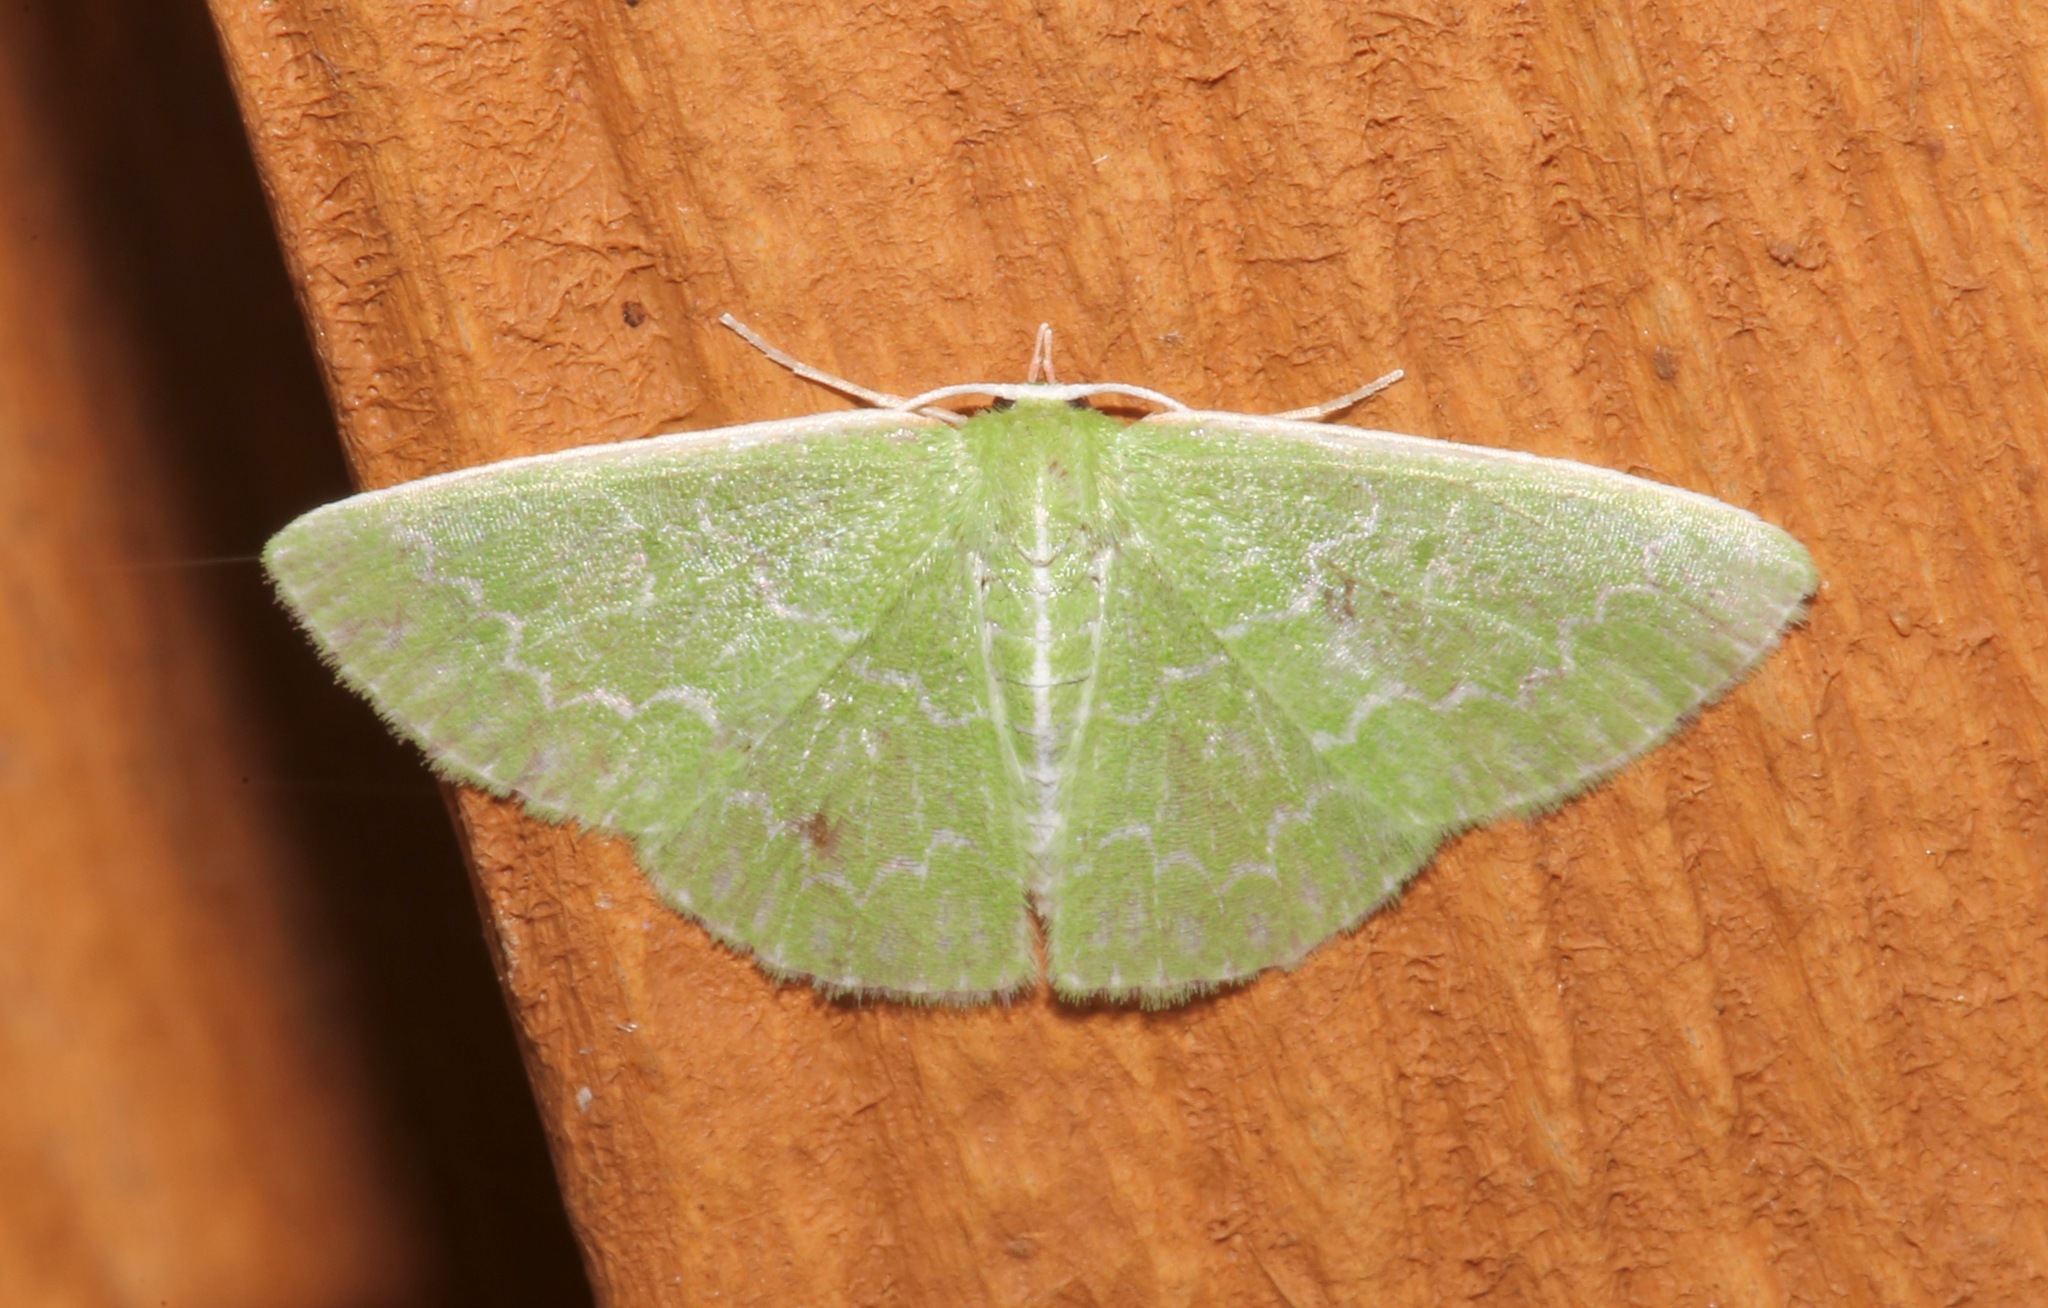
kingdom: Animalia
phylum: Arthropoda
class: Insecta
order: Lepidoptera
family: Geometridae
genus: Synchlora
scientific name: Synchlora frondaria
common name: Southern emerald
